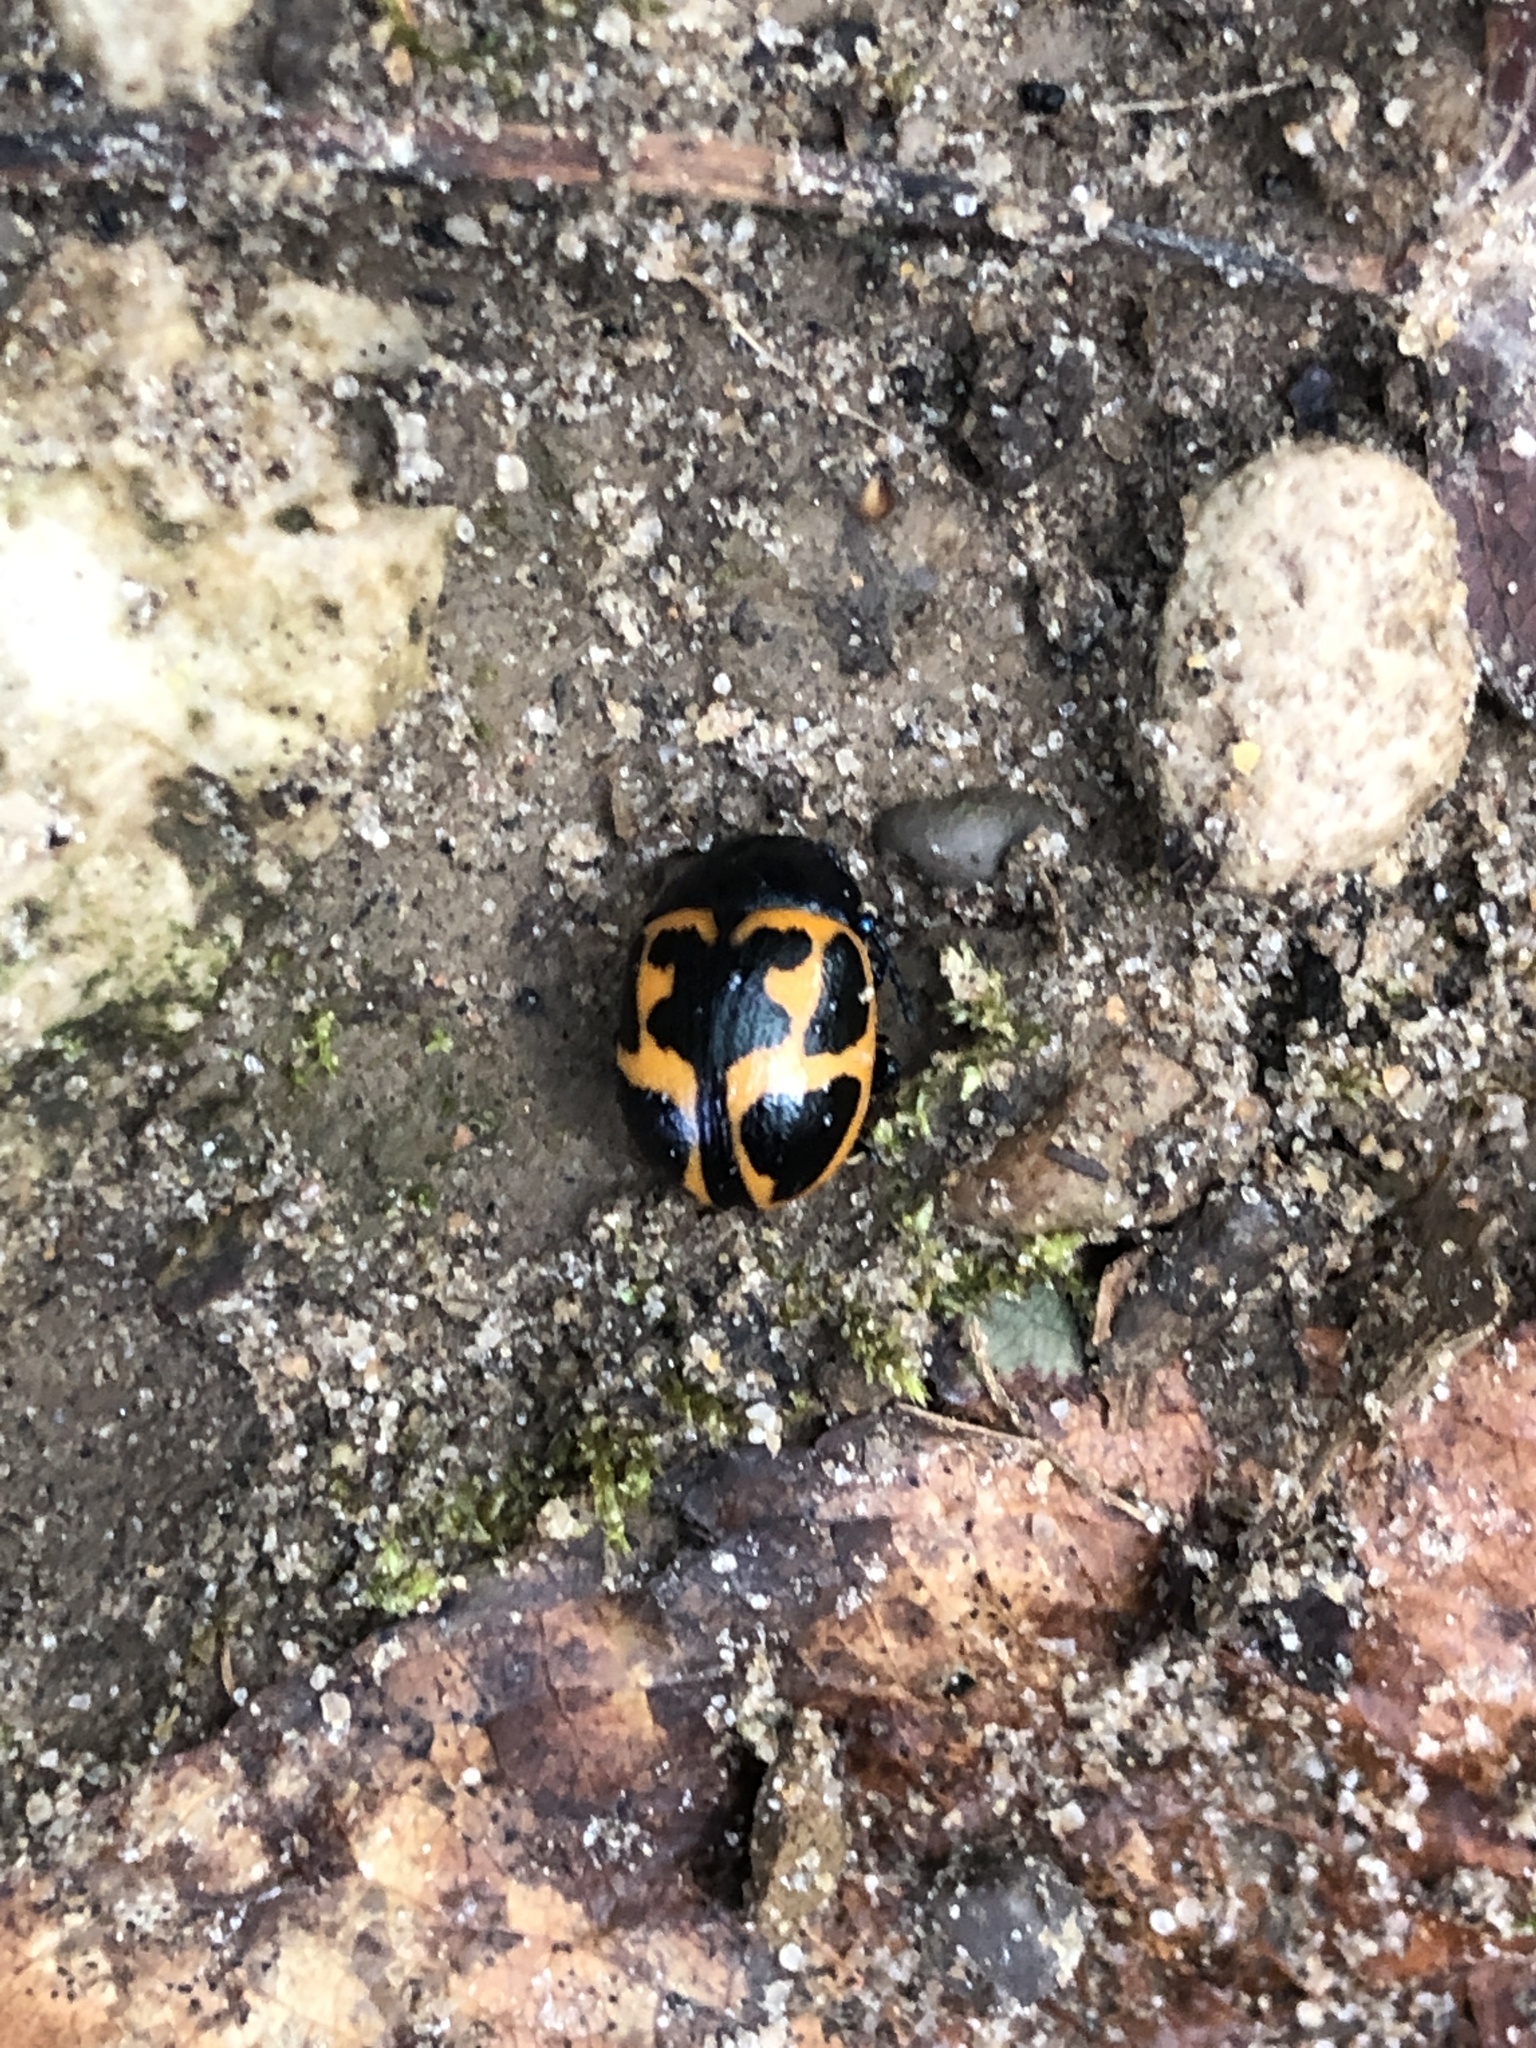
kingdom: Animalia
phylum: Arthropoda
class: Insecta
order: Coleoptera
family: Chrysomelidae
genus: Labidomera
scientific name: Labidomera clivicollis
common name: Swamp milkweed leaf beetle
